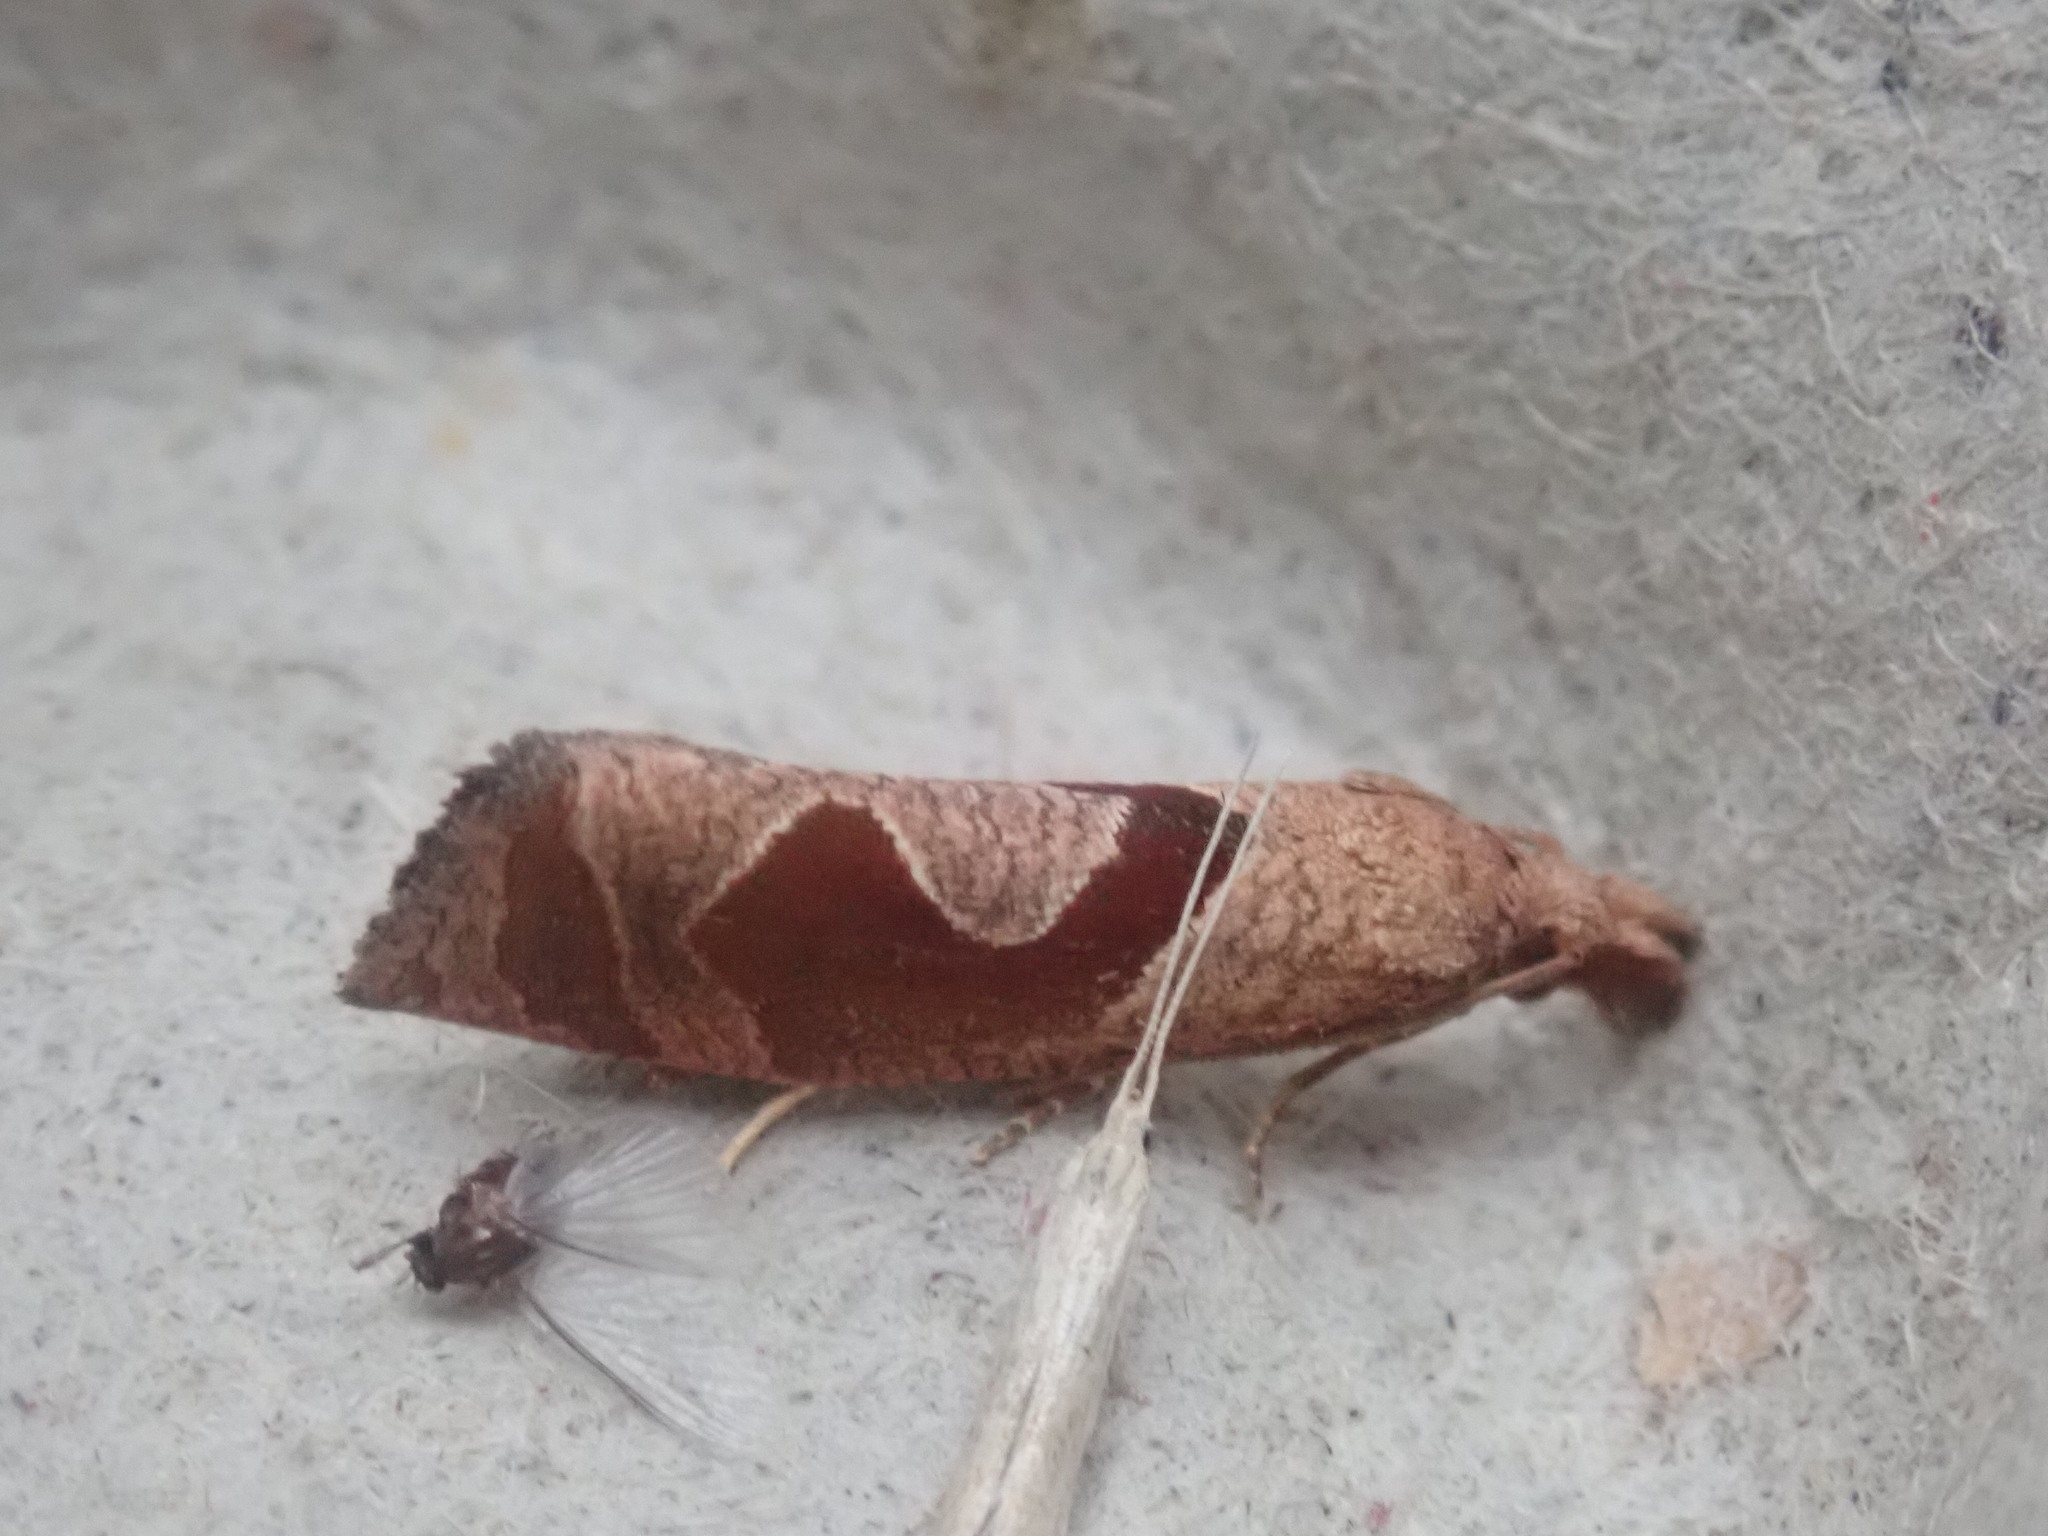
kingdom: Animalia
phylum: Arthropoda
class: Insecta
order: Lepidoptera
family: Tortricidae
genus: Pelochrista
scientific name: Pelochrista similiana
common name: Similar eucosma
